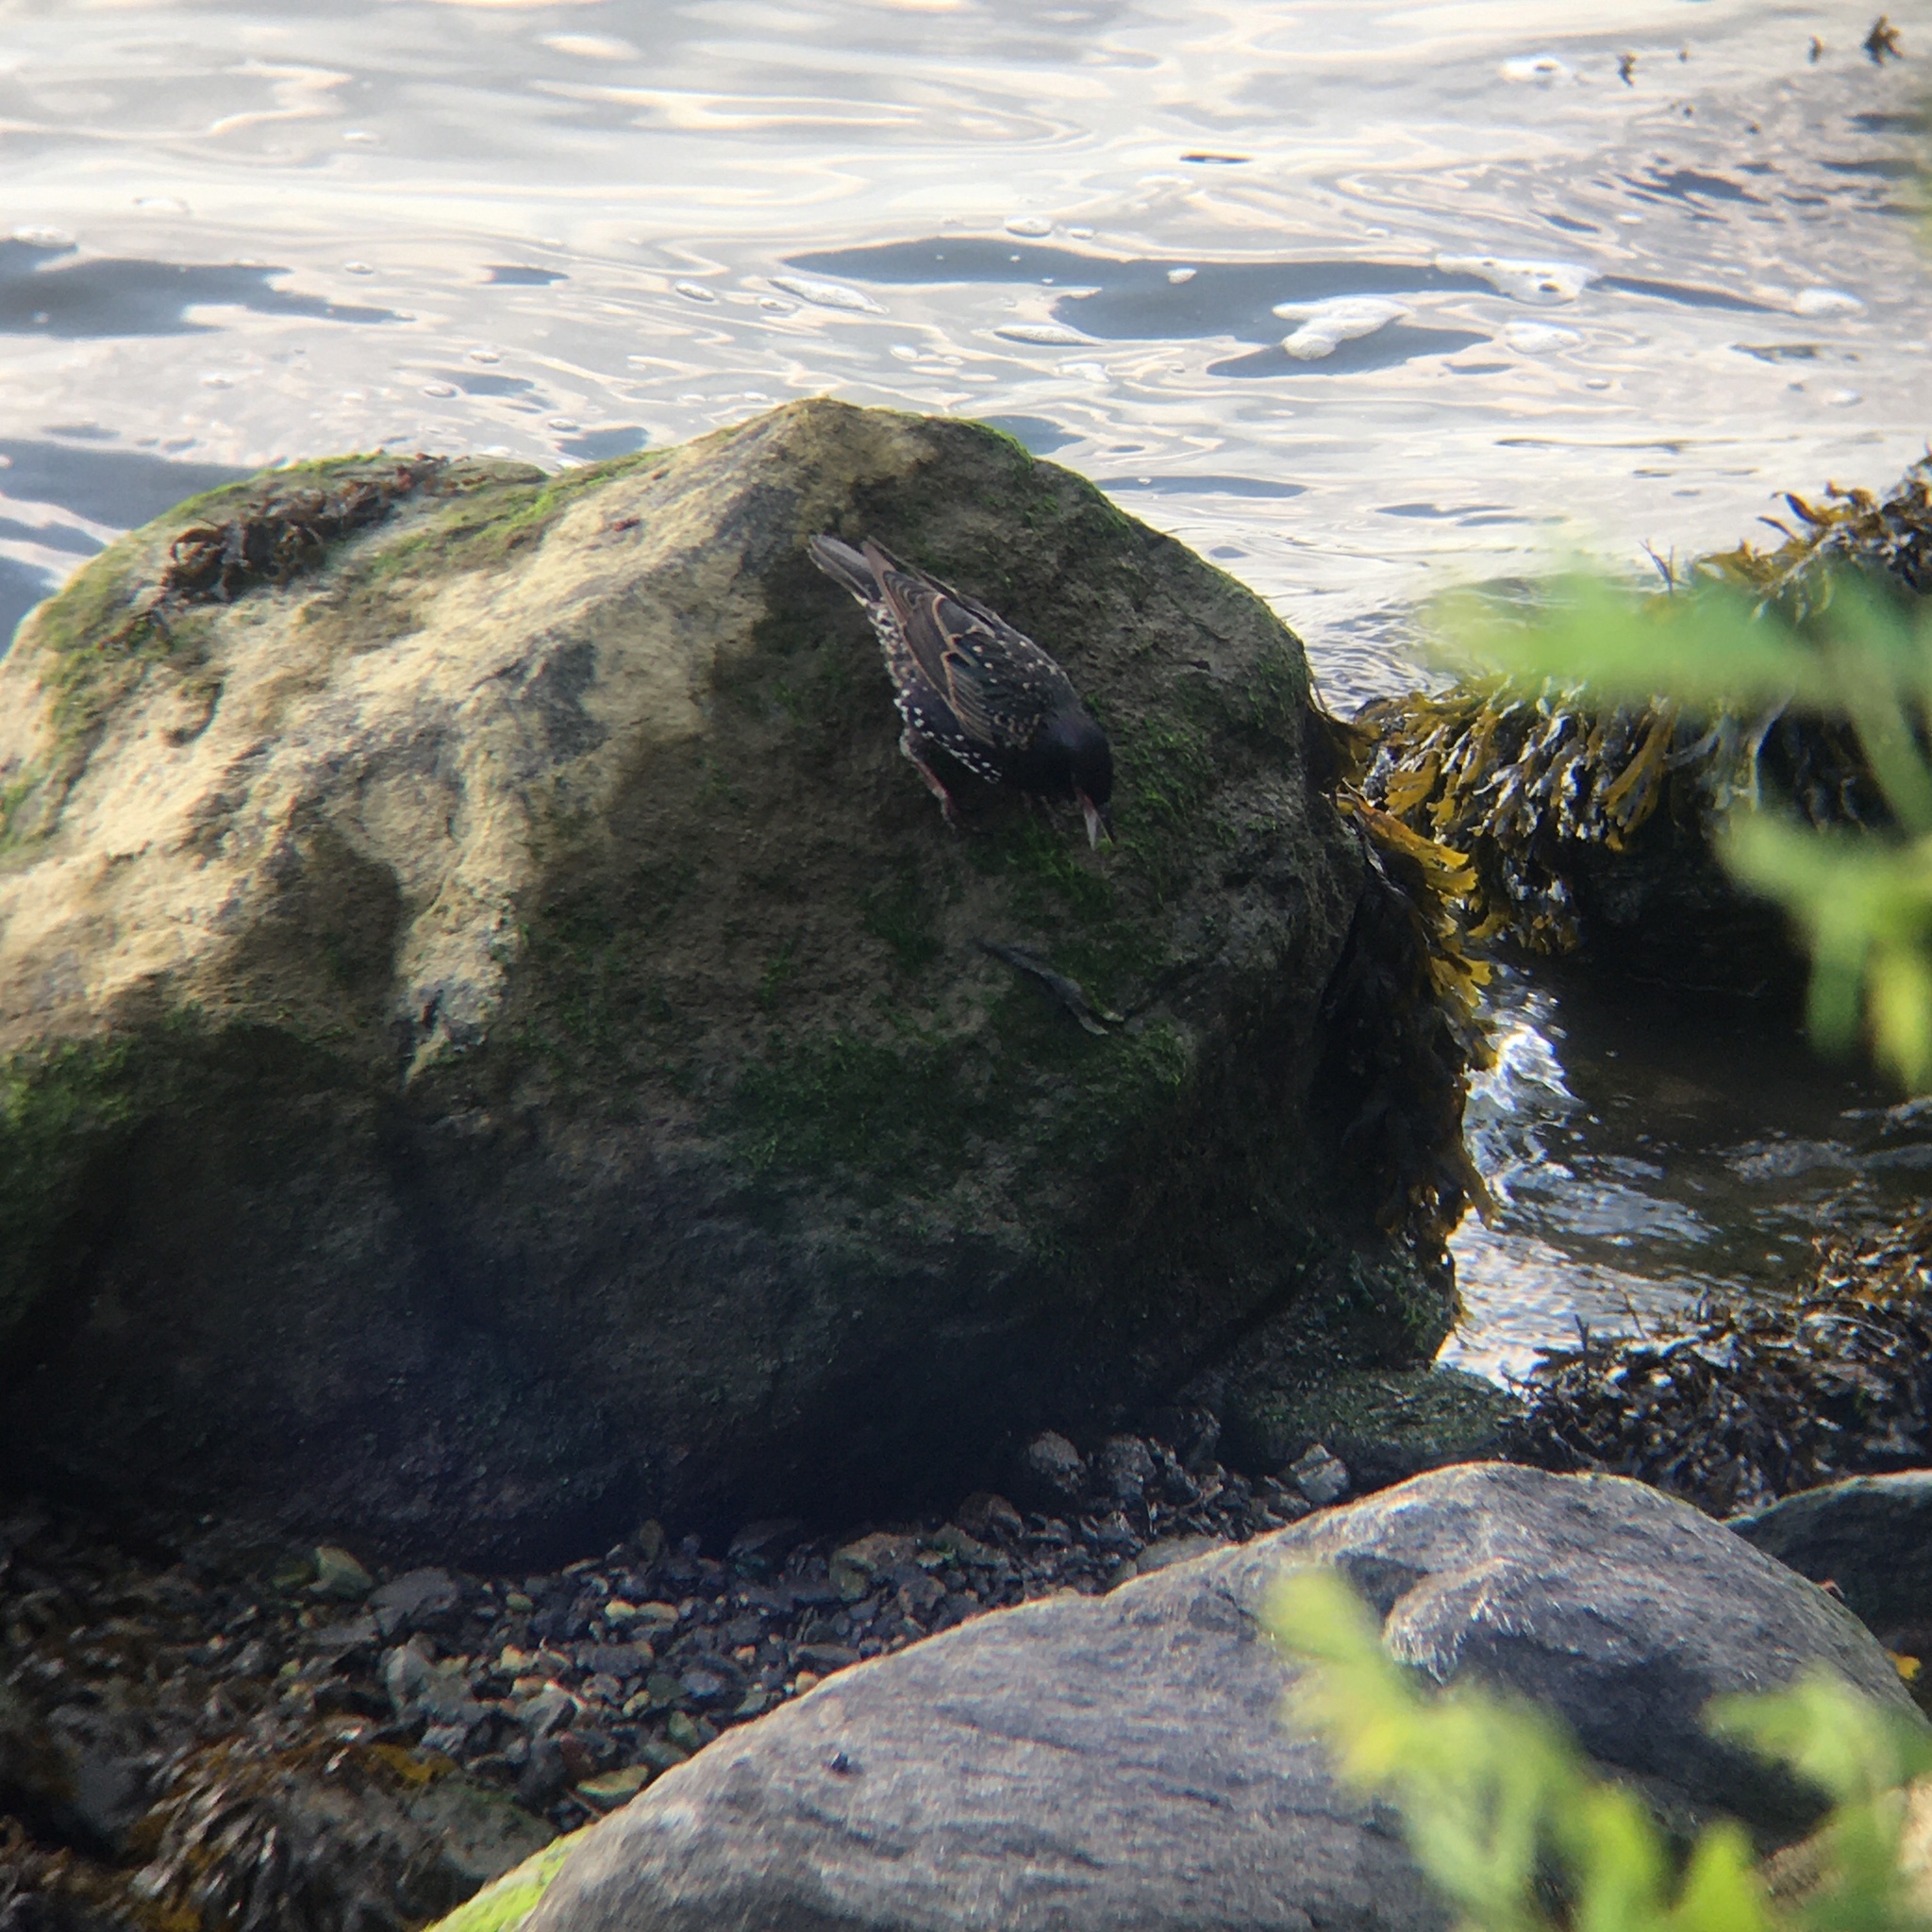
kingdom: Animalia
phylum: Chordata
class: Aves
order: Passeriformes
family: Sturnidae
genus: Sturnus
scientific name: Sturnus vulgaris
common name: Common starling
